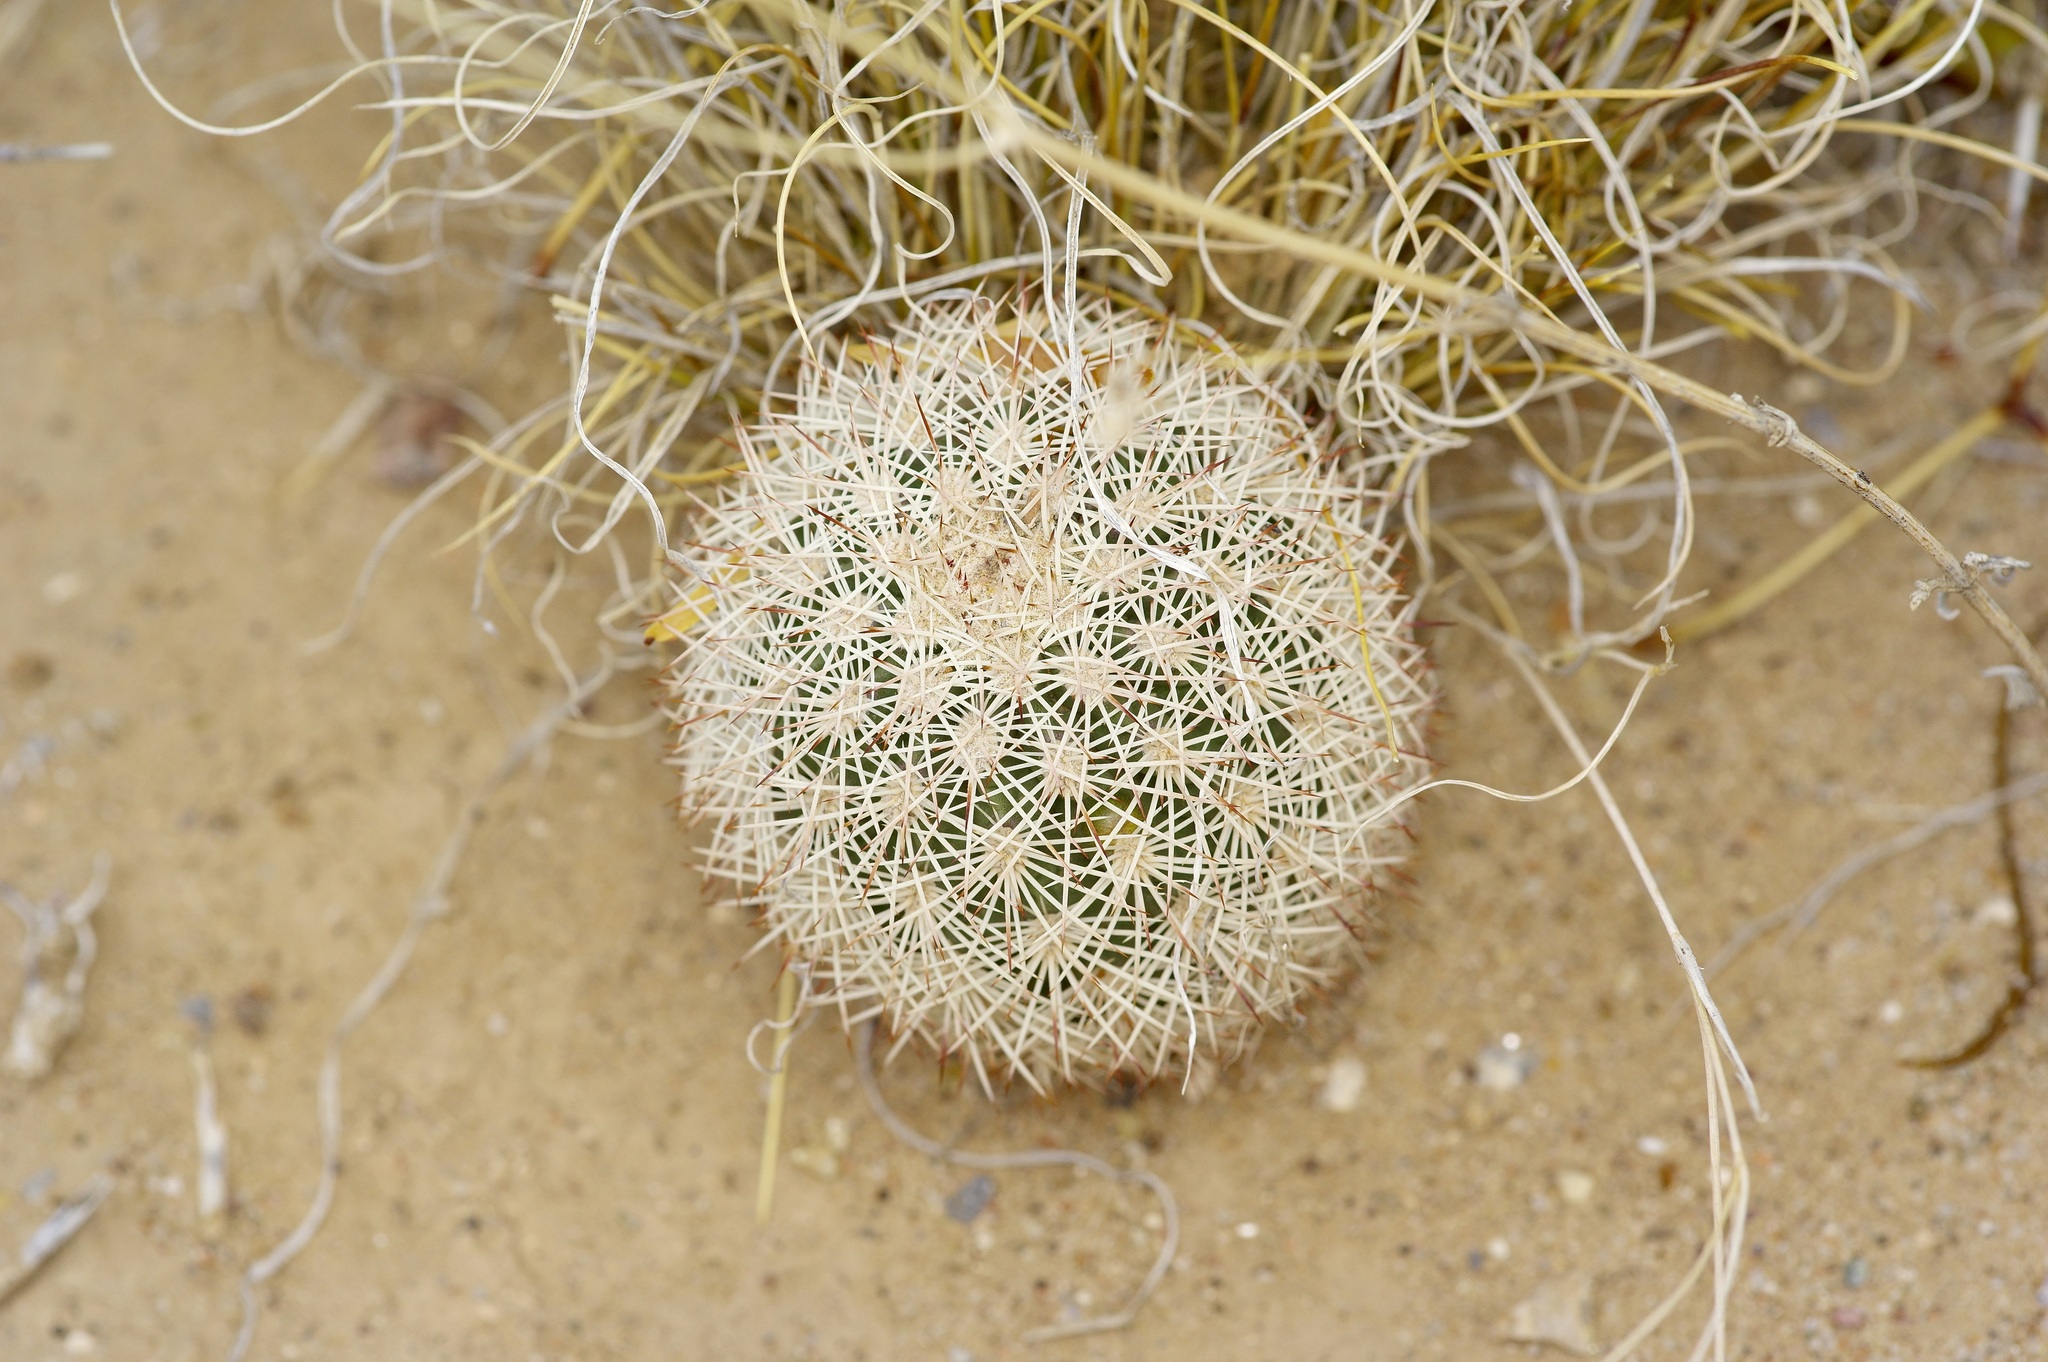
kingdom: Plantae
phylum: Tracheophyta
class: Magnoliopsida
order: Caryophyllales
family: Cactaceae
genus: Echinocereus
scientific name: Echinocereus dasyacanthus
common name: Spiny hedgehog cactus
